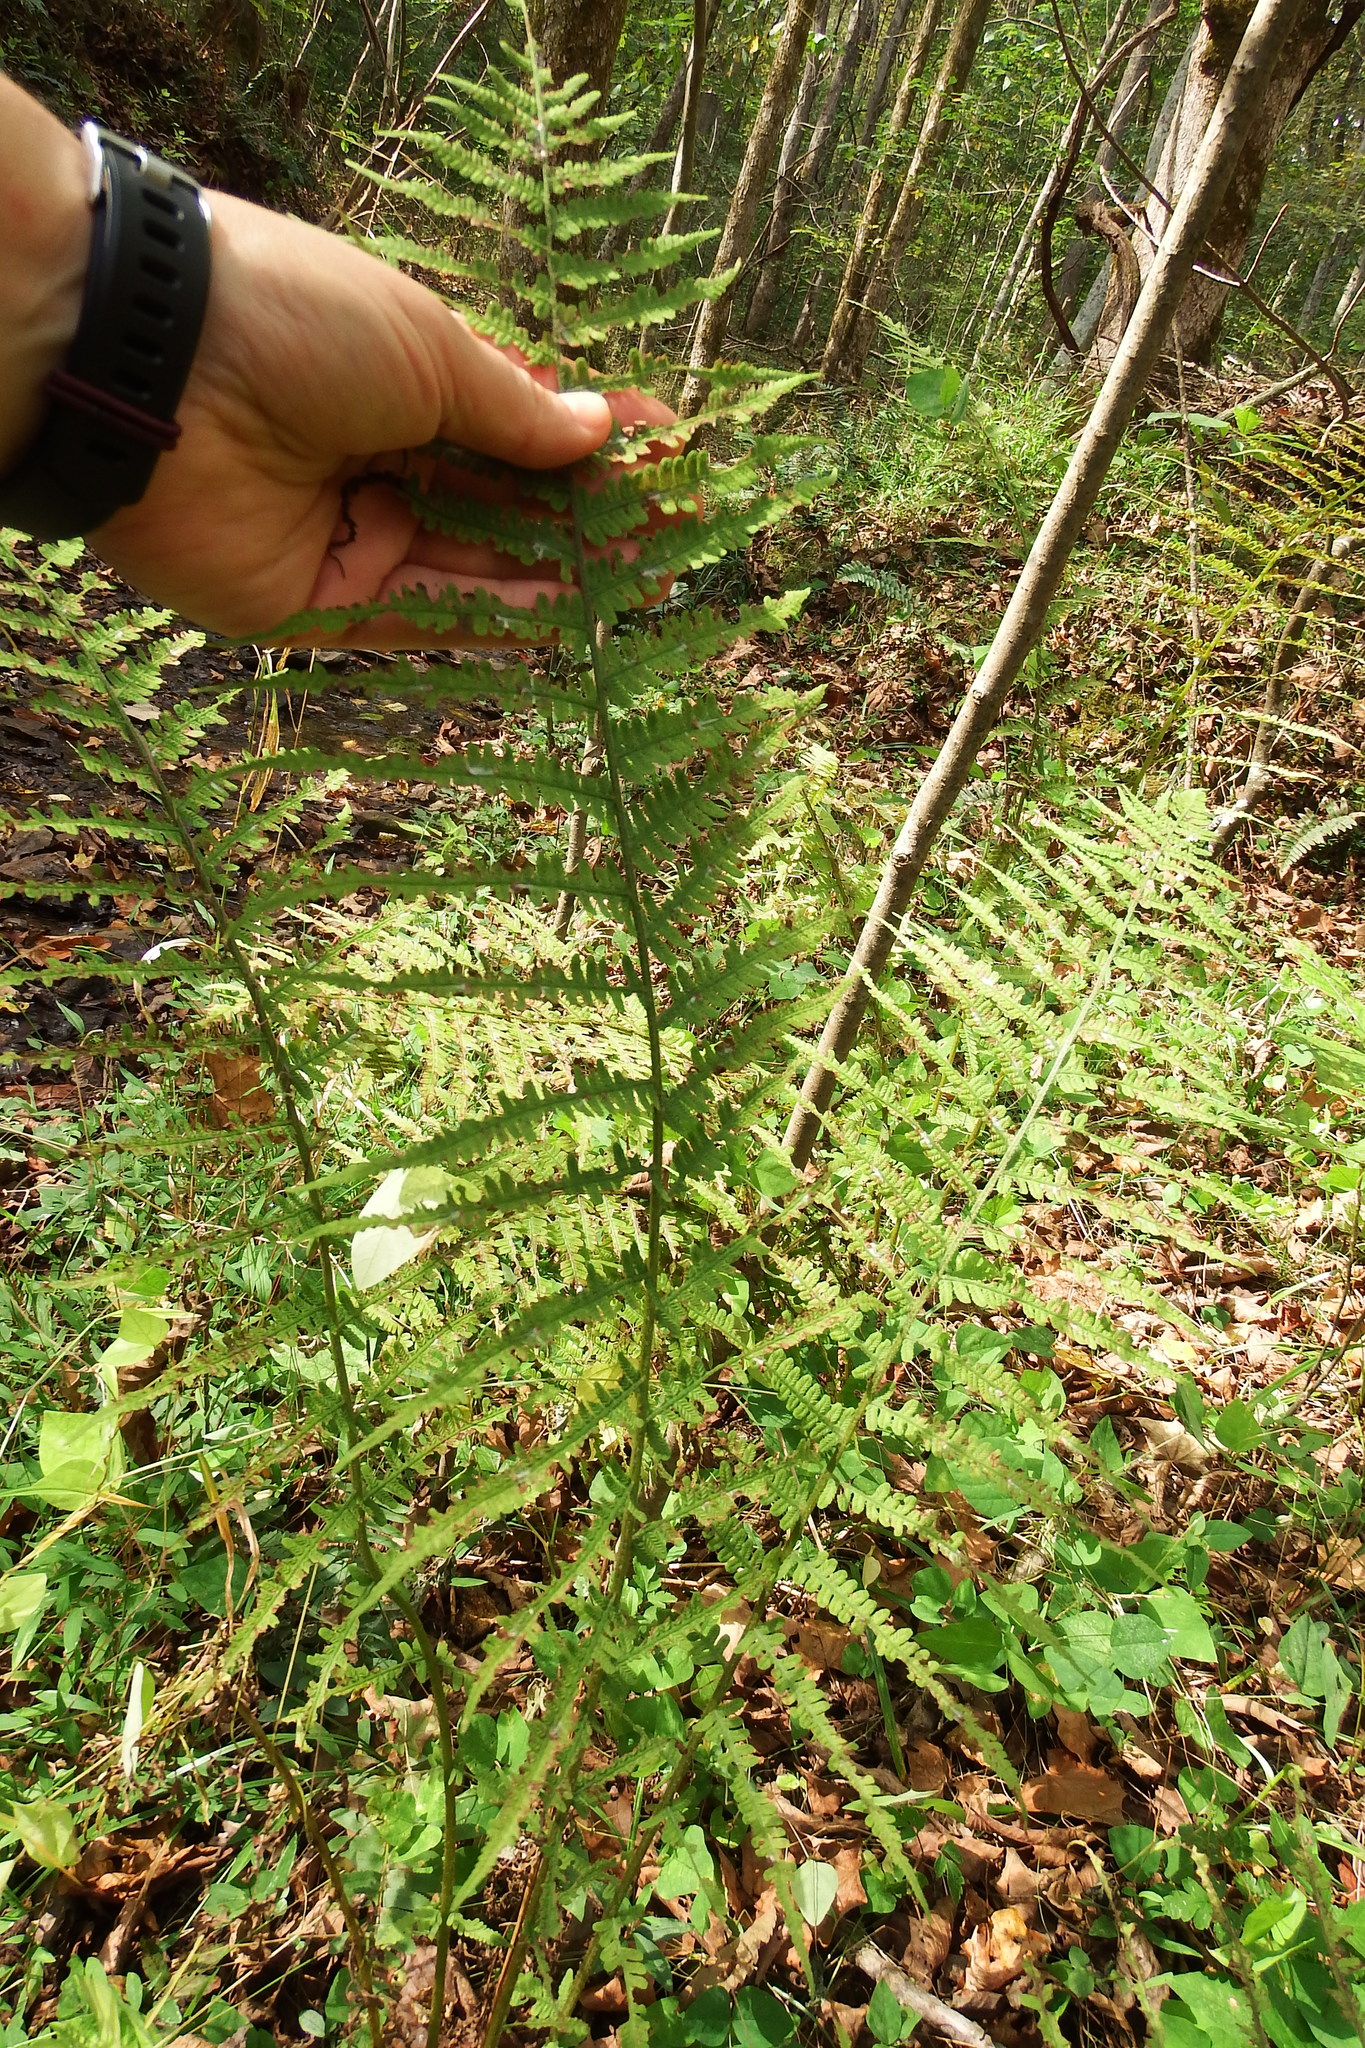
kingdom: Plantae
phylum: Tracheophyta
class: Polypodiopsida
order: Polypodiales
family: Athyriaceae
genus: Deparia
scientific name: Deparia acrostichoides
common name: Silver false spleenwort
